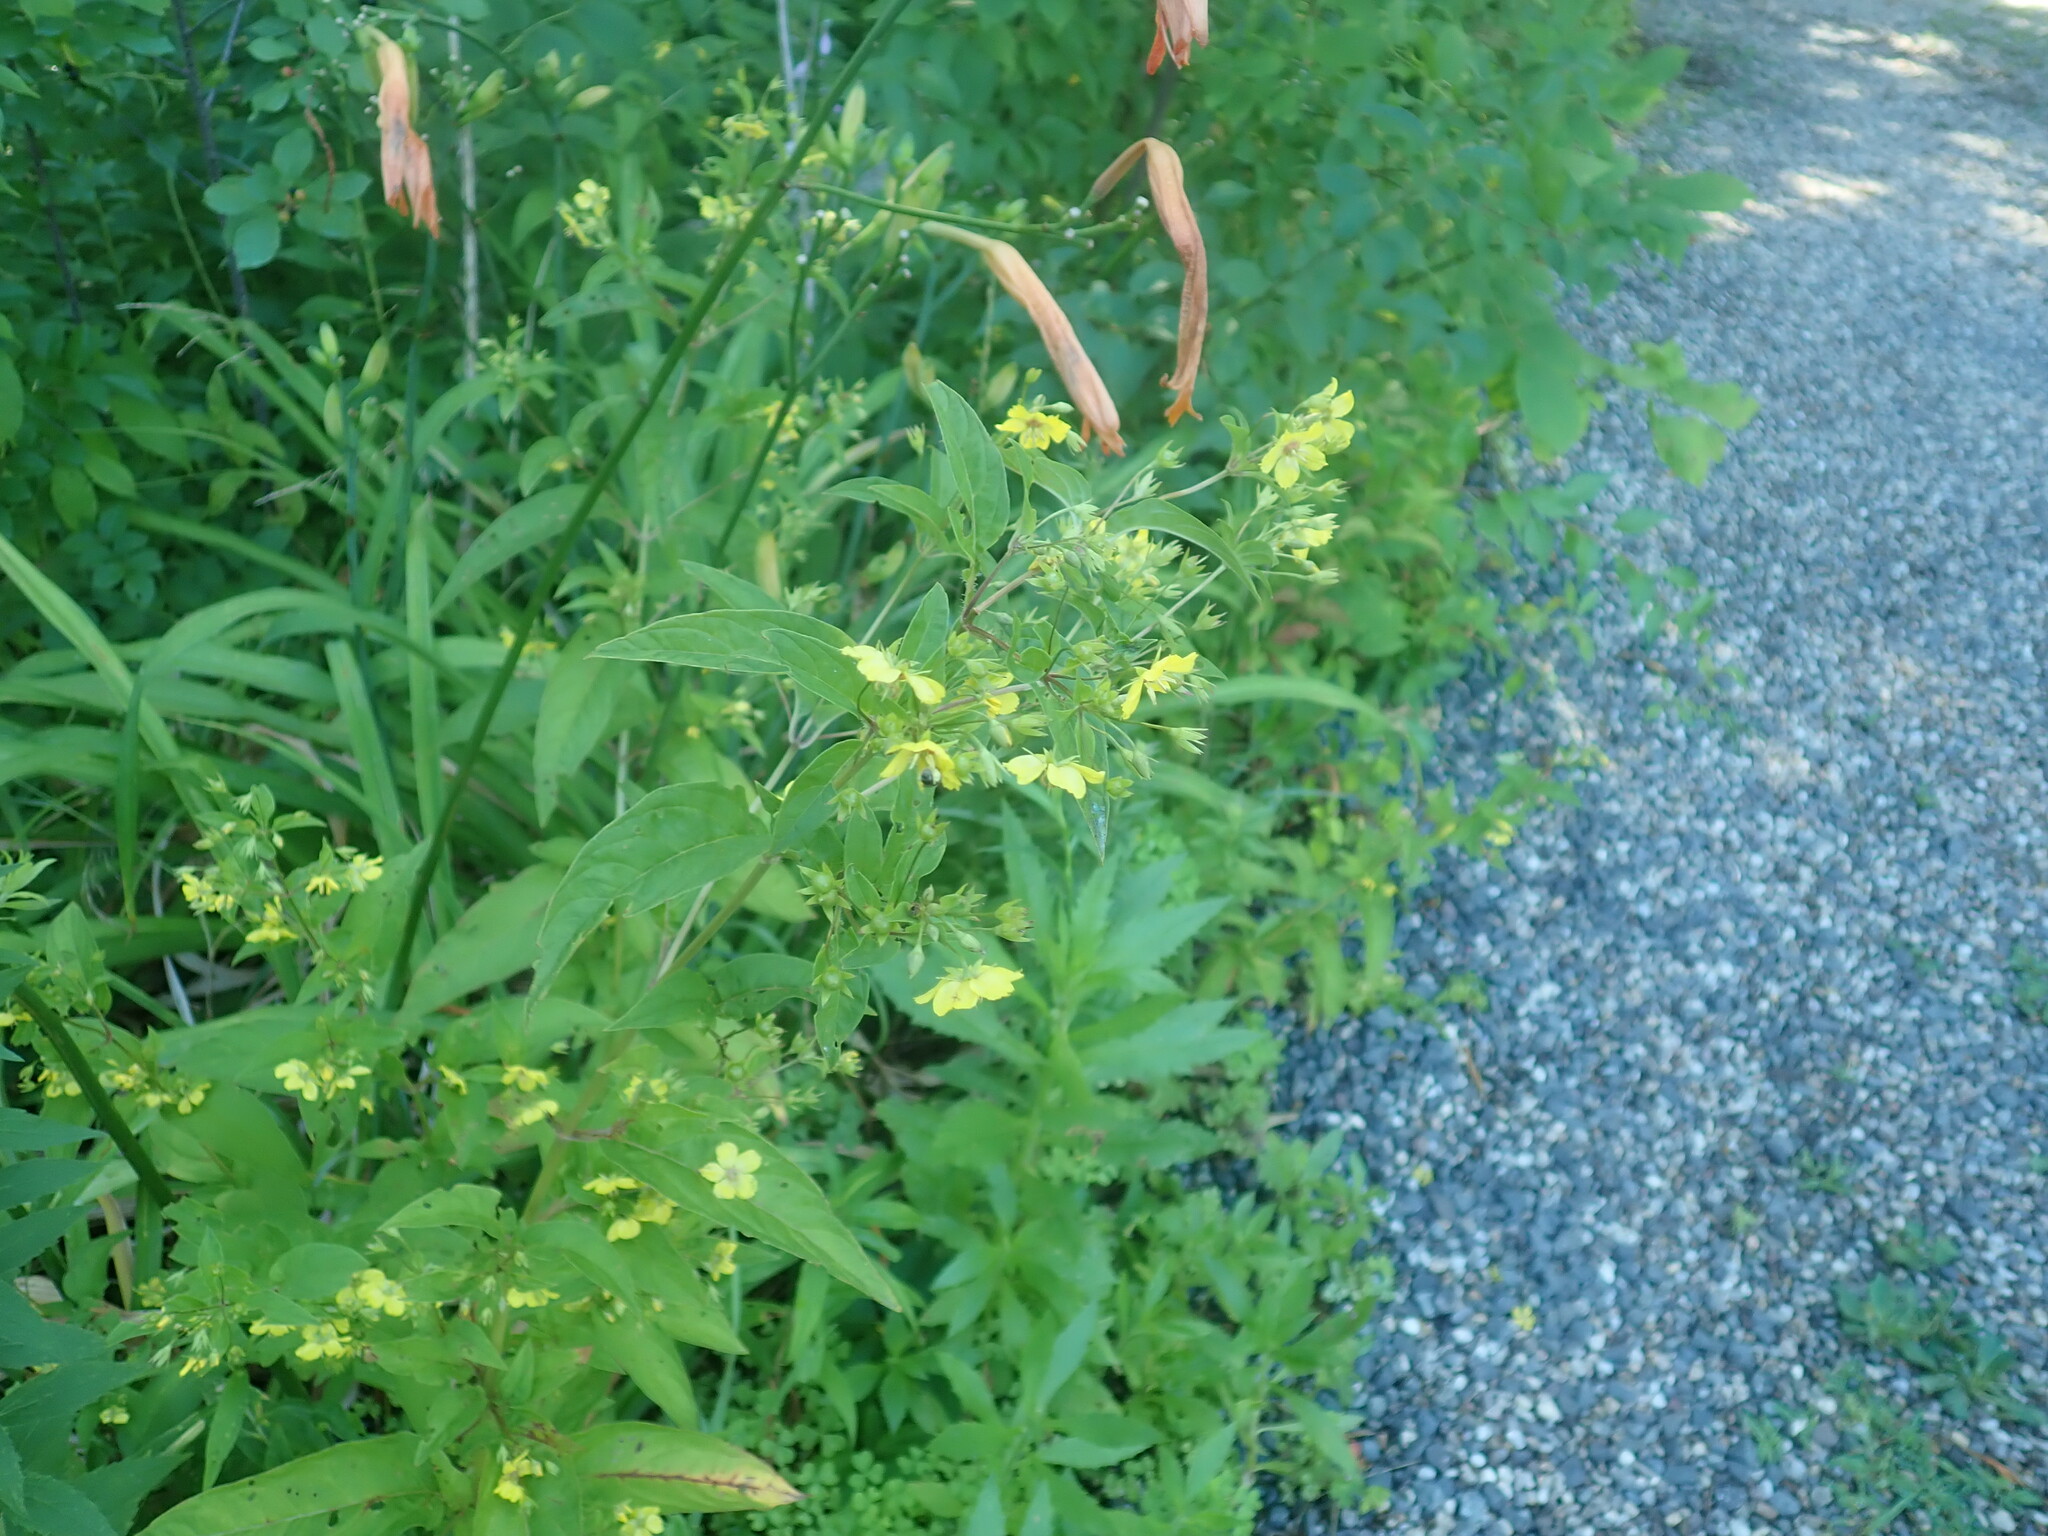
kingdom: Plantae
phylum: Tracheophyta
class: Magnoliopsida
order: Ericales
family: Primulaceae
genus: Lysimachia
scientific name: Lysimachia ciliata
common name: Fringed loosestrife
